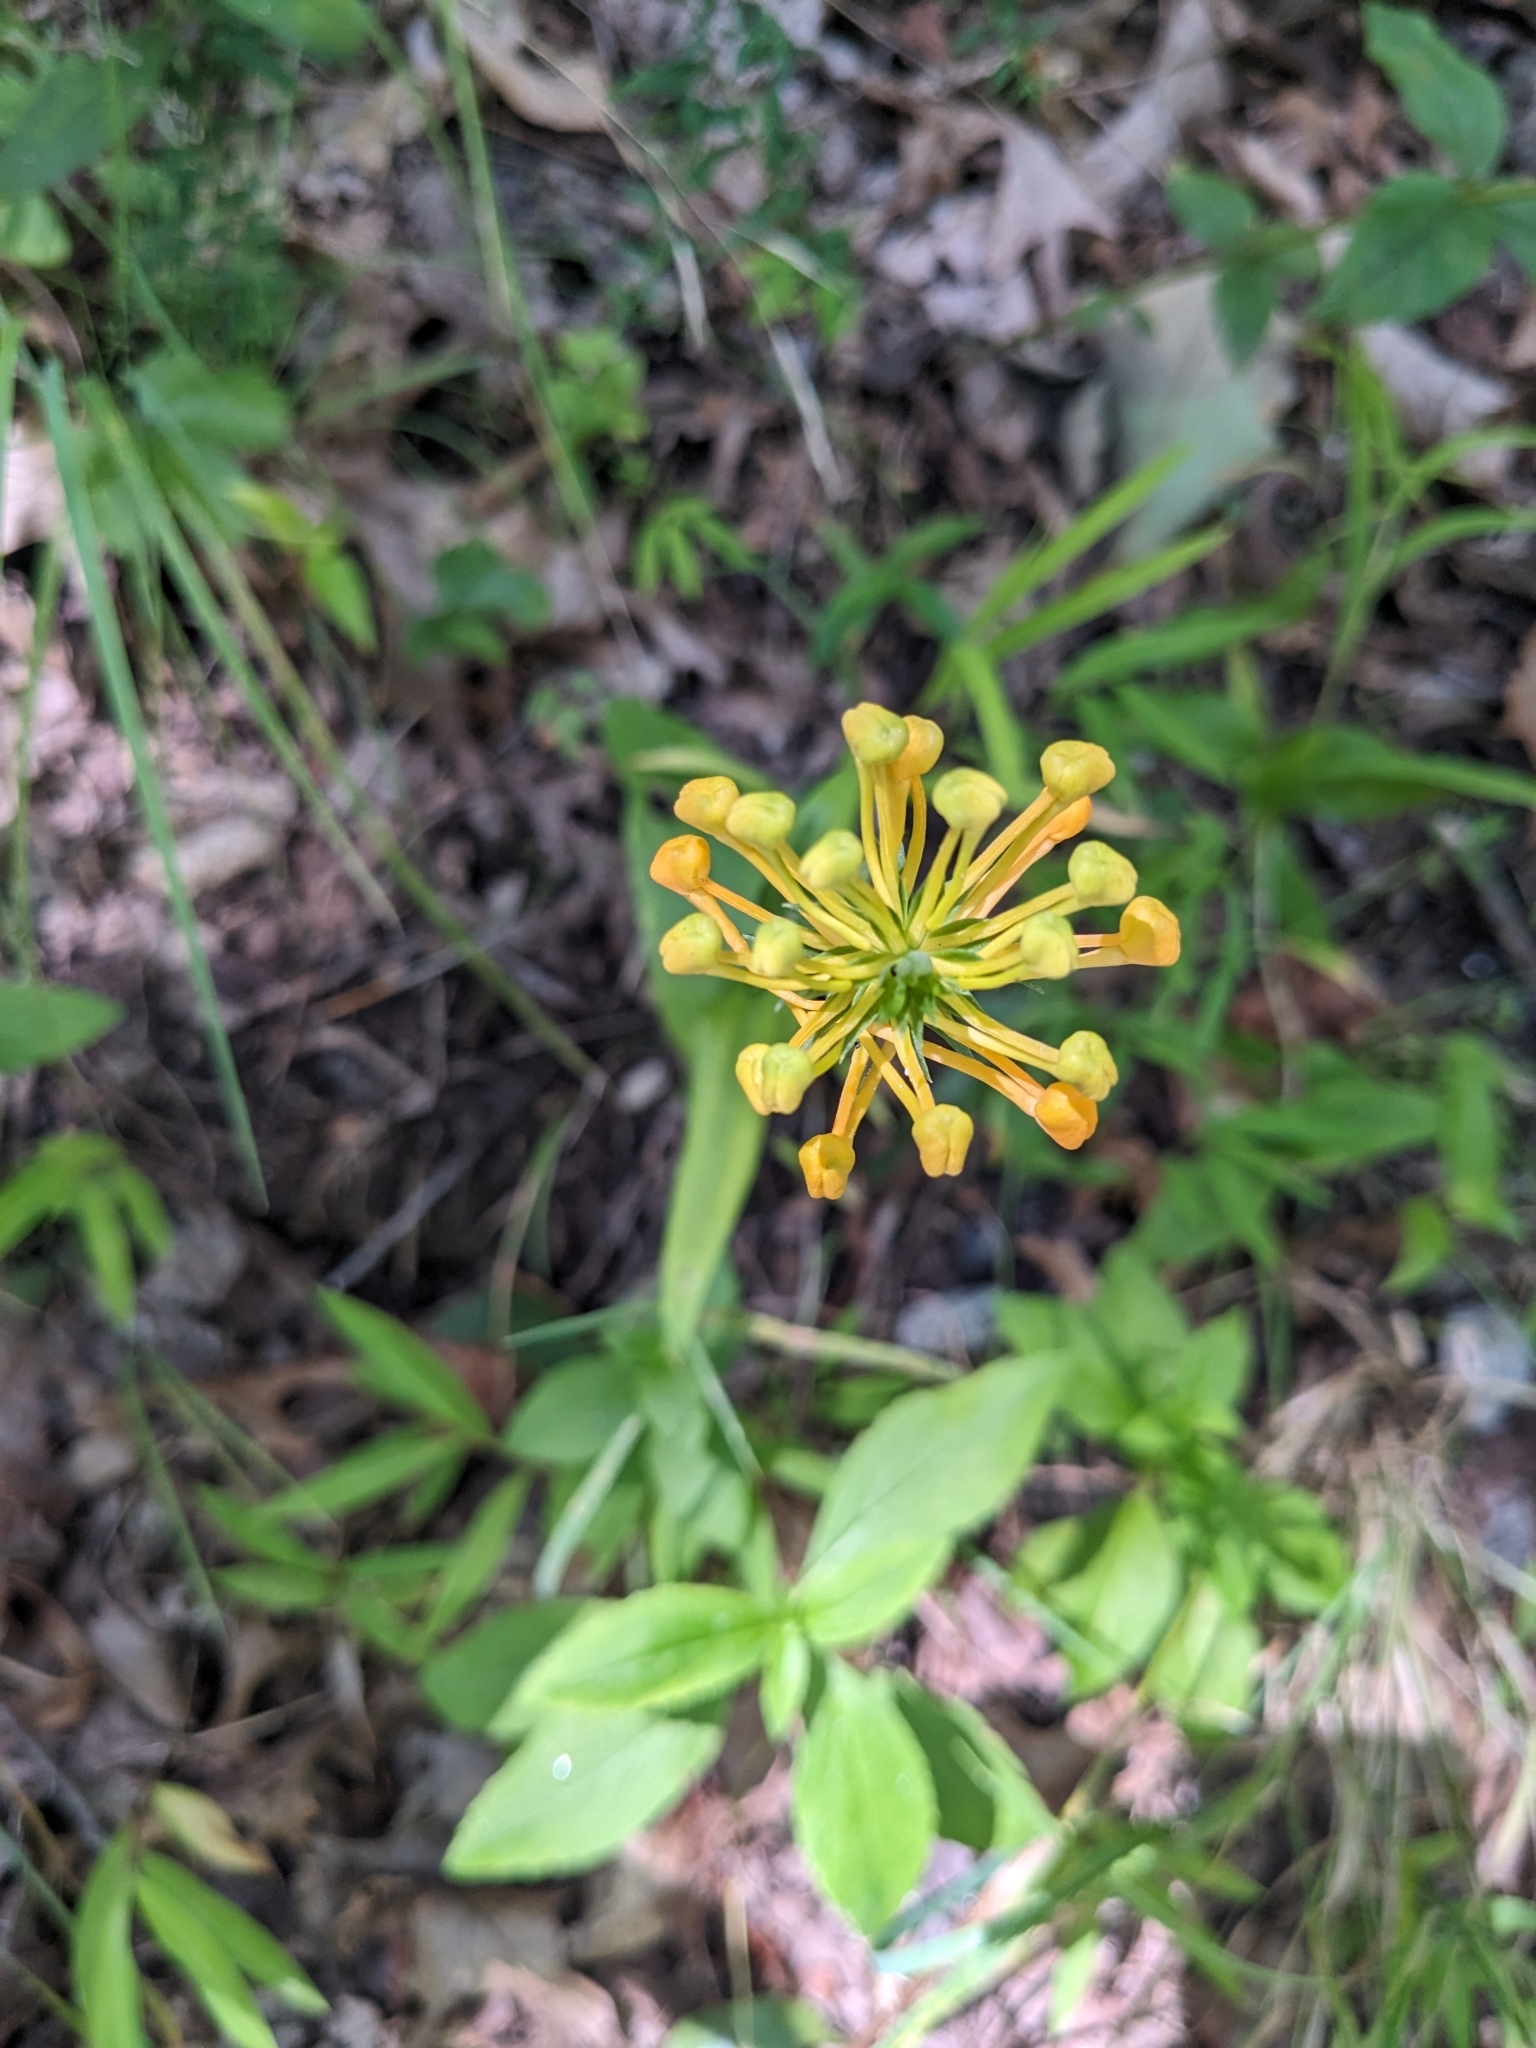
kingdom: Plantae
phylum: Tracheophyta
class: Liliopsida
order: Asparagales
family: Orchidaceae
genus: Platanthera
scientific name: Platanthera ciliaris
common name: Yellow fringed orchid
